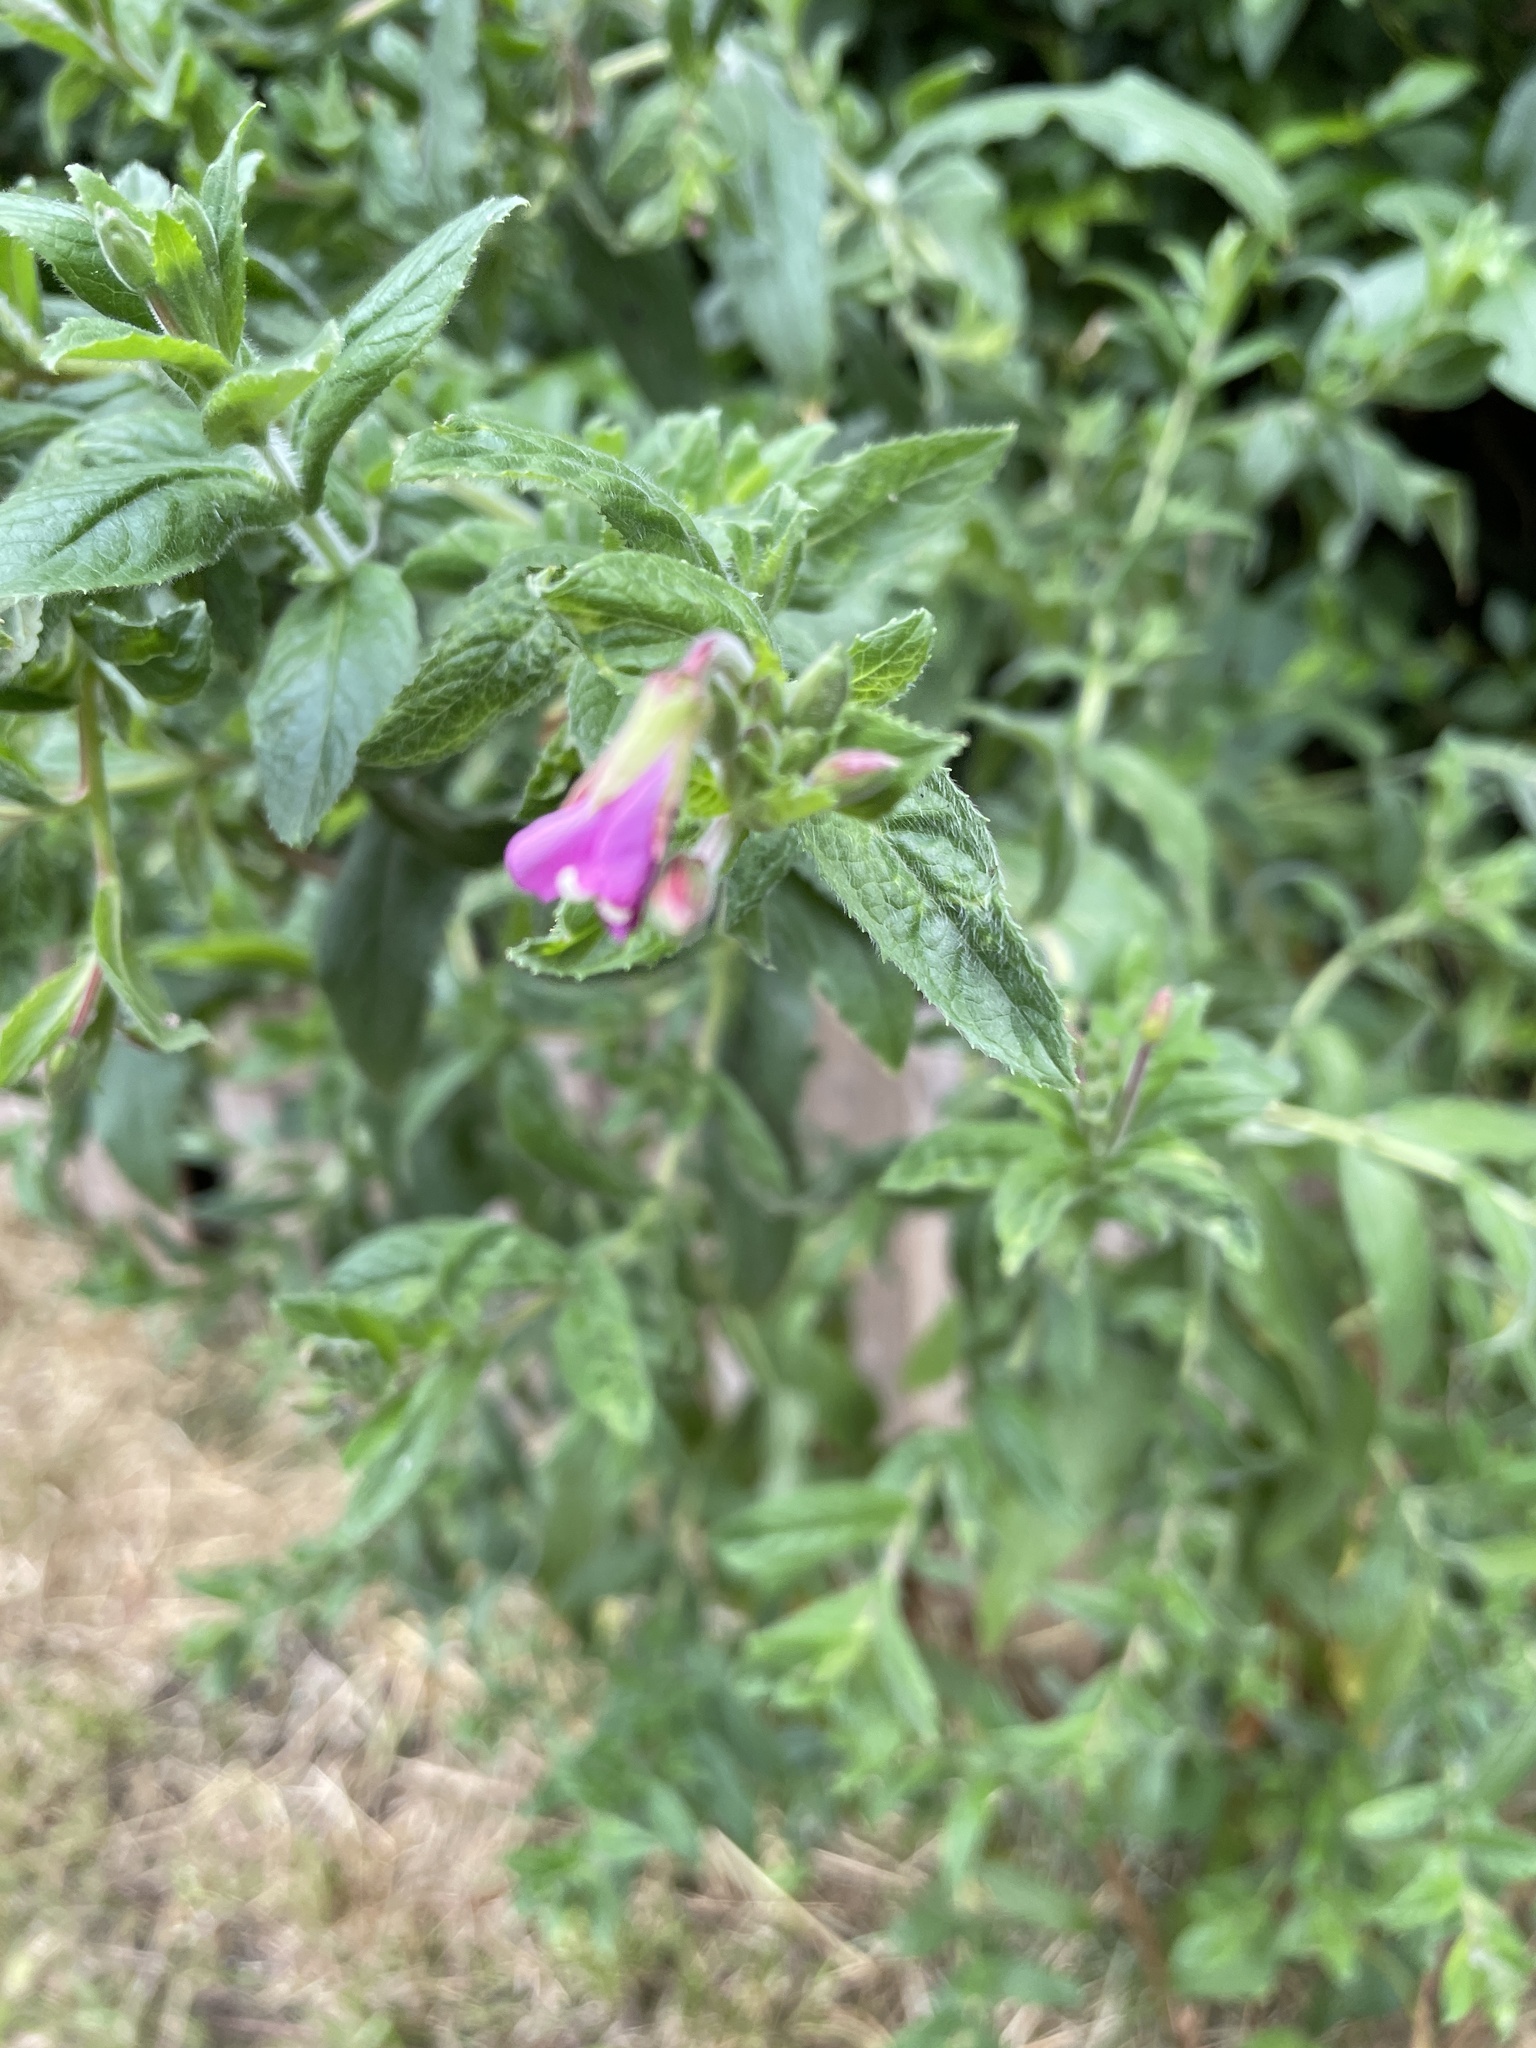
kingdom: Plantae
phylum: Tracheophyta
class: Magnoliopsida
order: Myrtales
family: Onagraceae
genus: Epilobium
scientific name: Epilobium hirsutum
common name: Great willowherb
